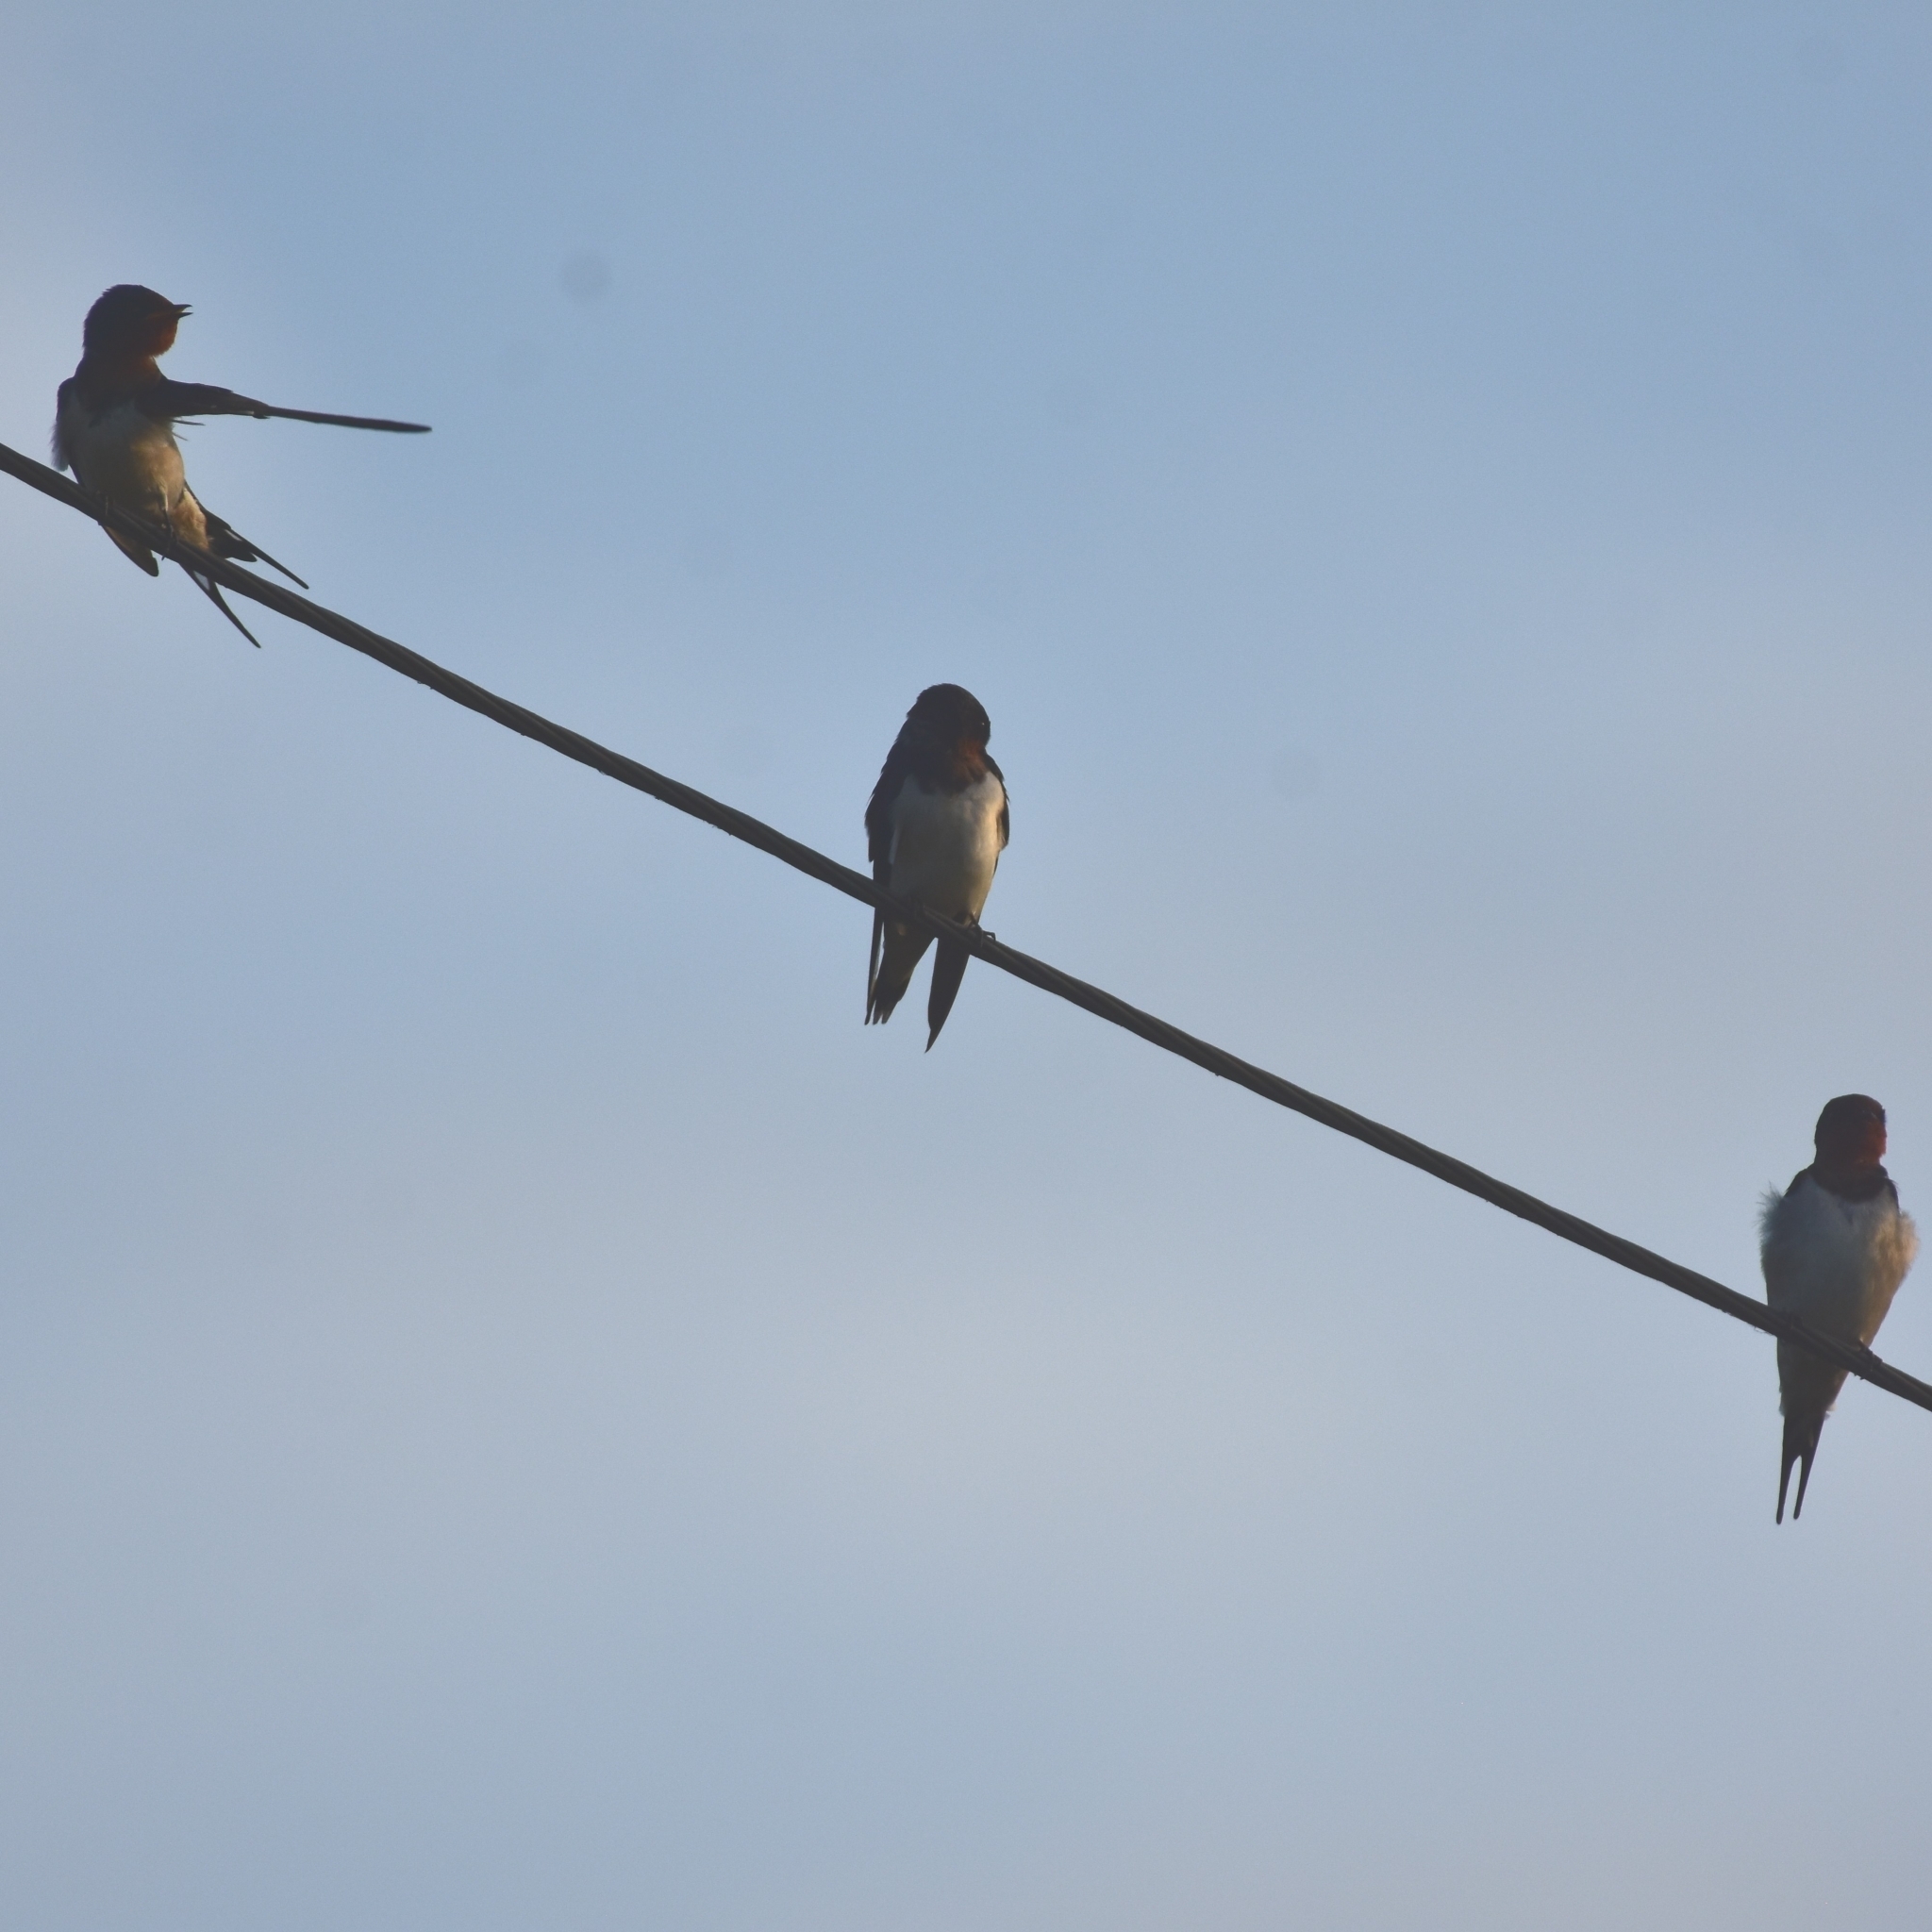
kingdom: Animalia
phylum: Chordata
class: Aves
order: Passeriformes
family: Hirundinidae
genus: Hirundo
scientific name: Hirundo rustica
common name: Barn swallow
